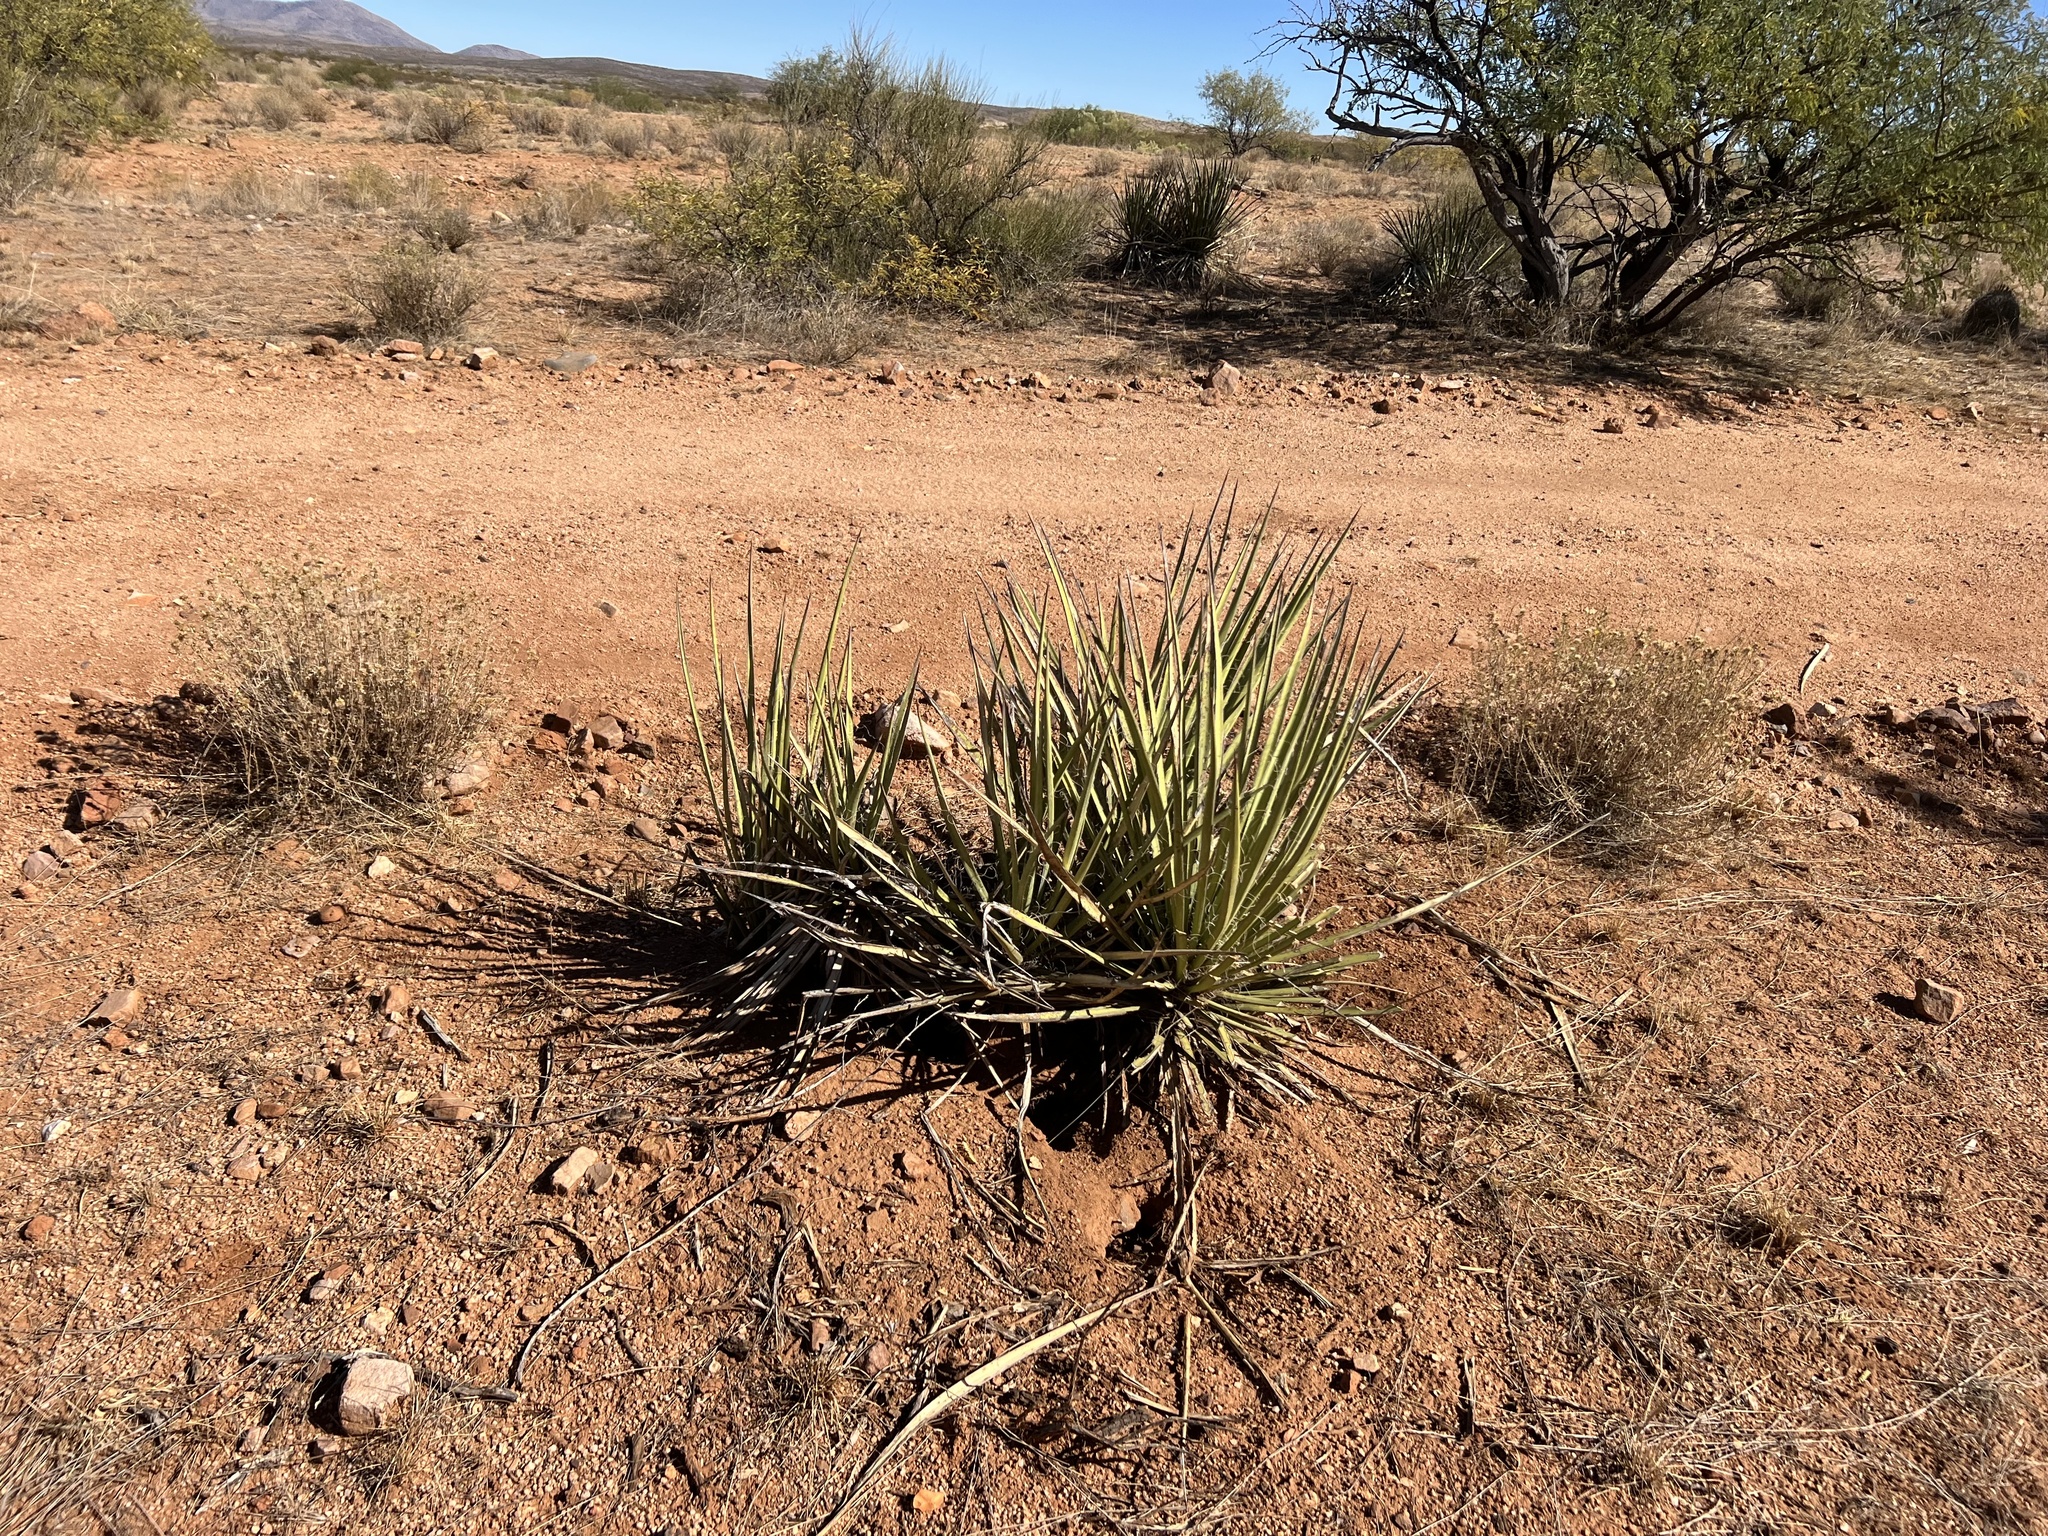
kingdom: Plantae
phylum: Tracheophyta
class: Liliopsida
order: Asparagales
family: Asparagaceae
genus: Yucca
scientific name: Yucca baccata
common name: Banana yucca
